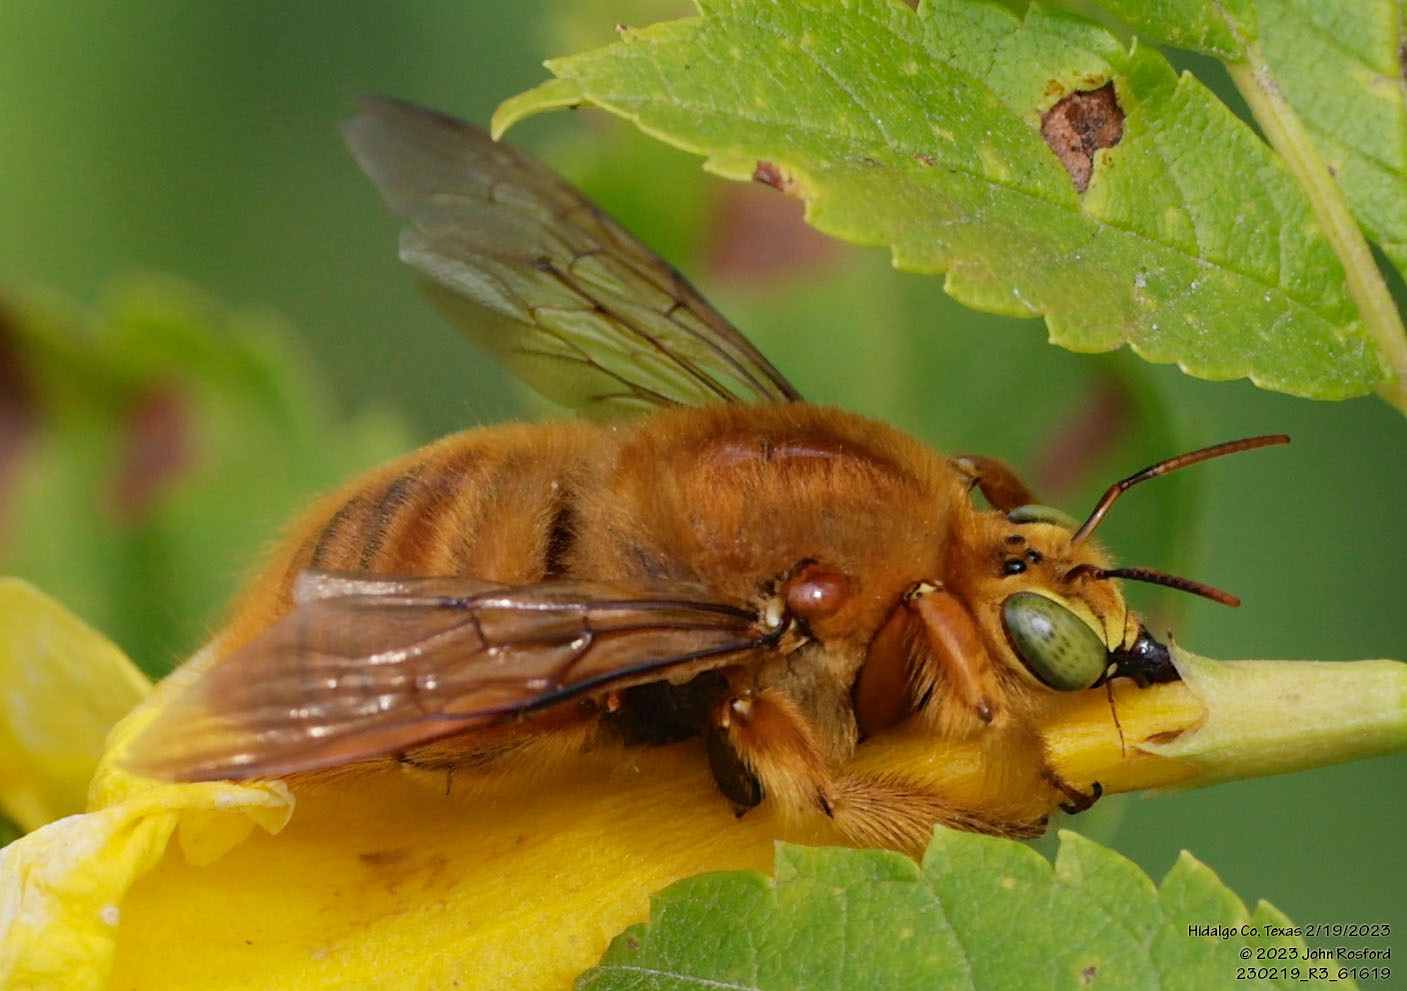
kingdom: Animalia
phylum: Arthropoda
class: Insecta
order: Hymenoptera
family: Apidae
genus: Xylocopa
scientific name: Xylocopa griswoldi
